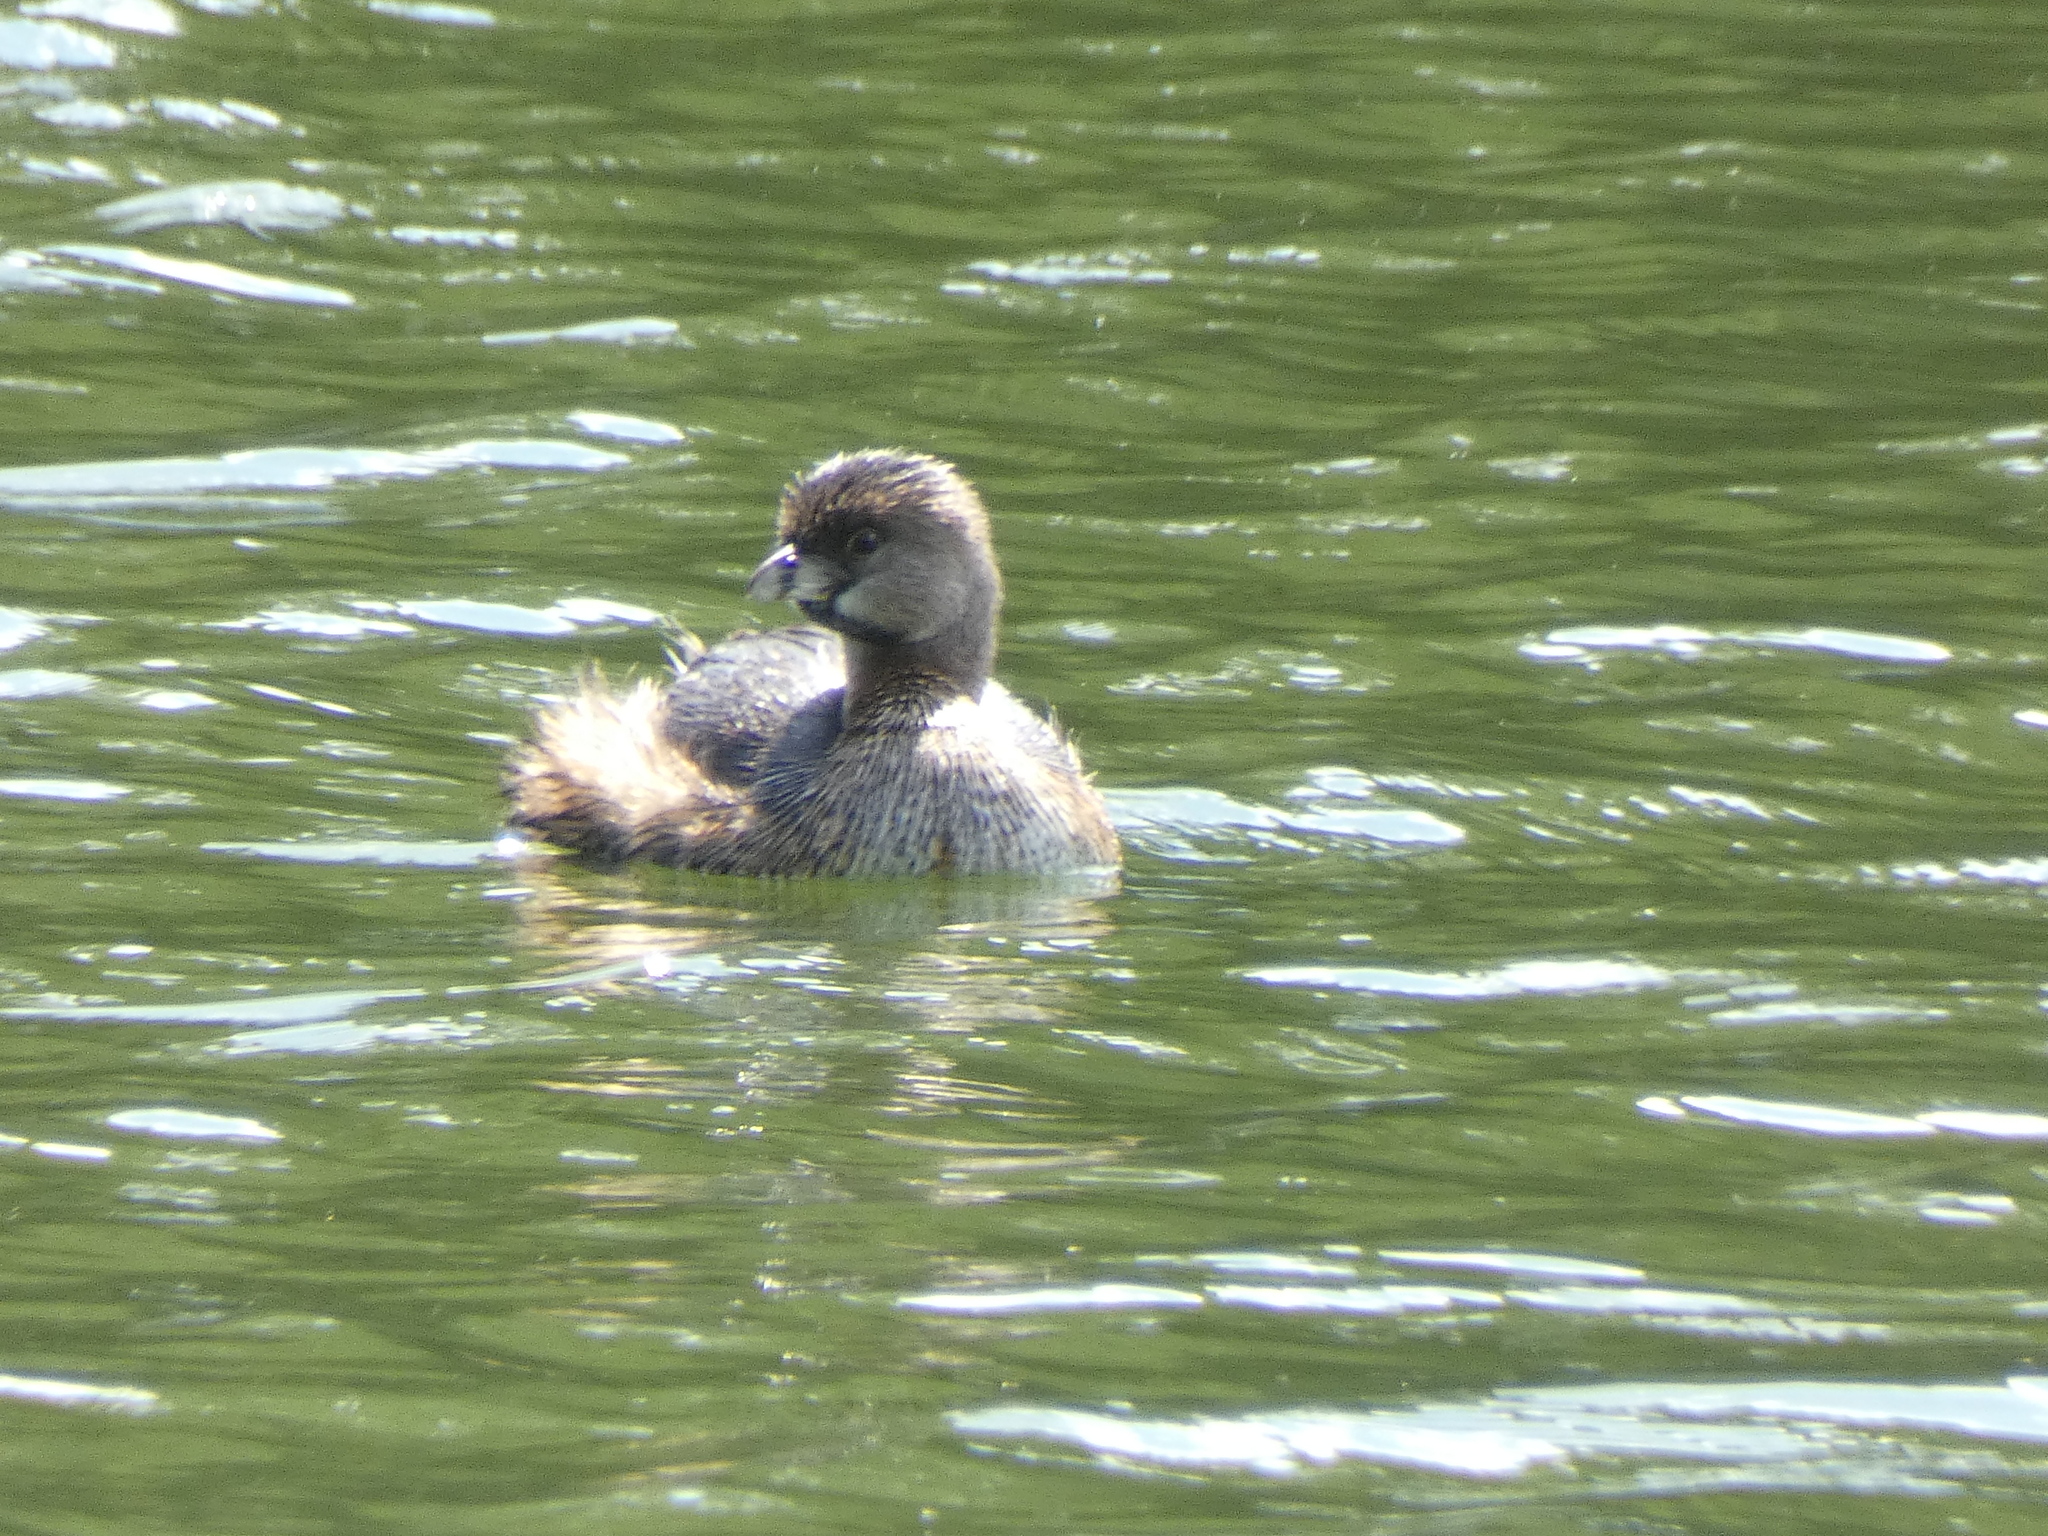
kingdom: Animalia
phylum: Chordata
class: Aves
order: Podicipediformes
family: Podicipedidae
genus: Podilymbus
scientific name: Podilymbus podiceps
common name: Pied-billed grebe
